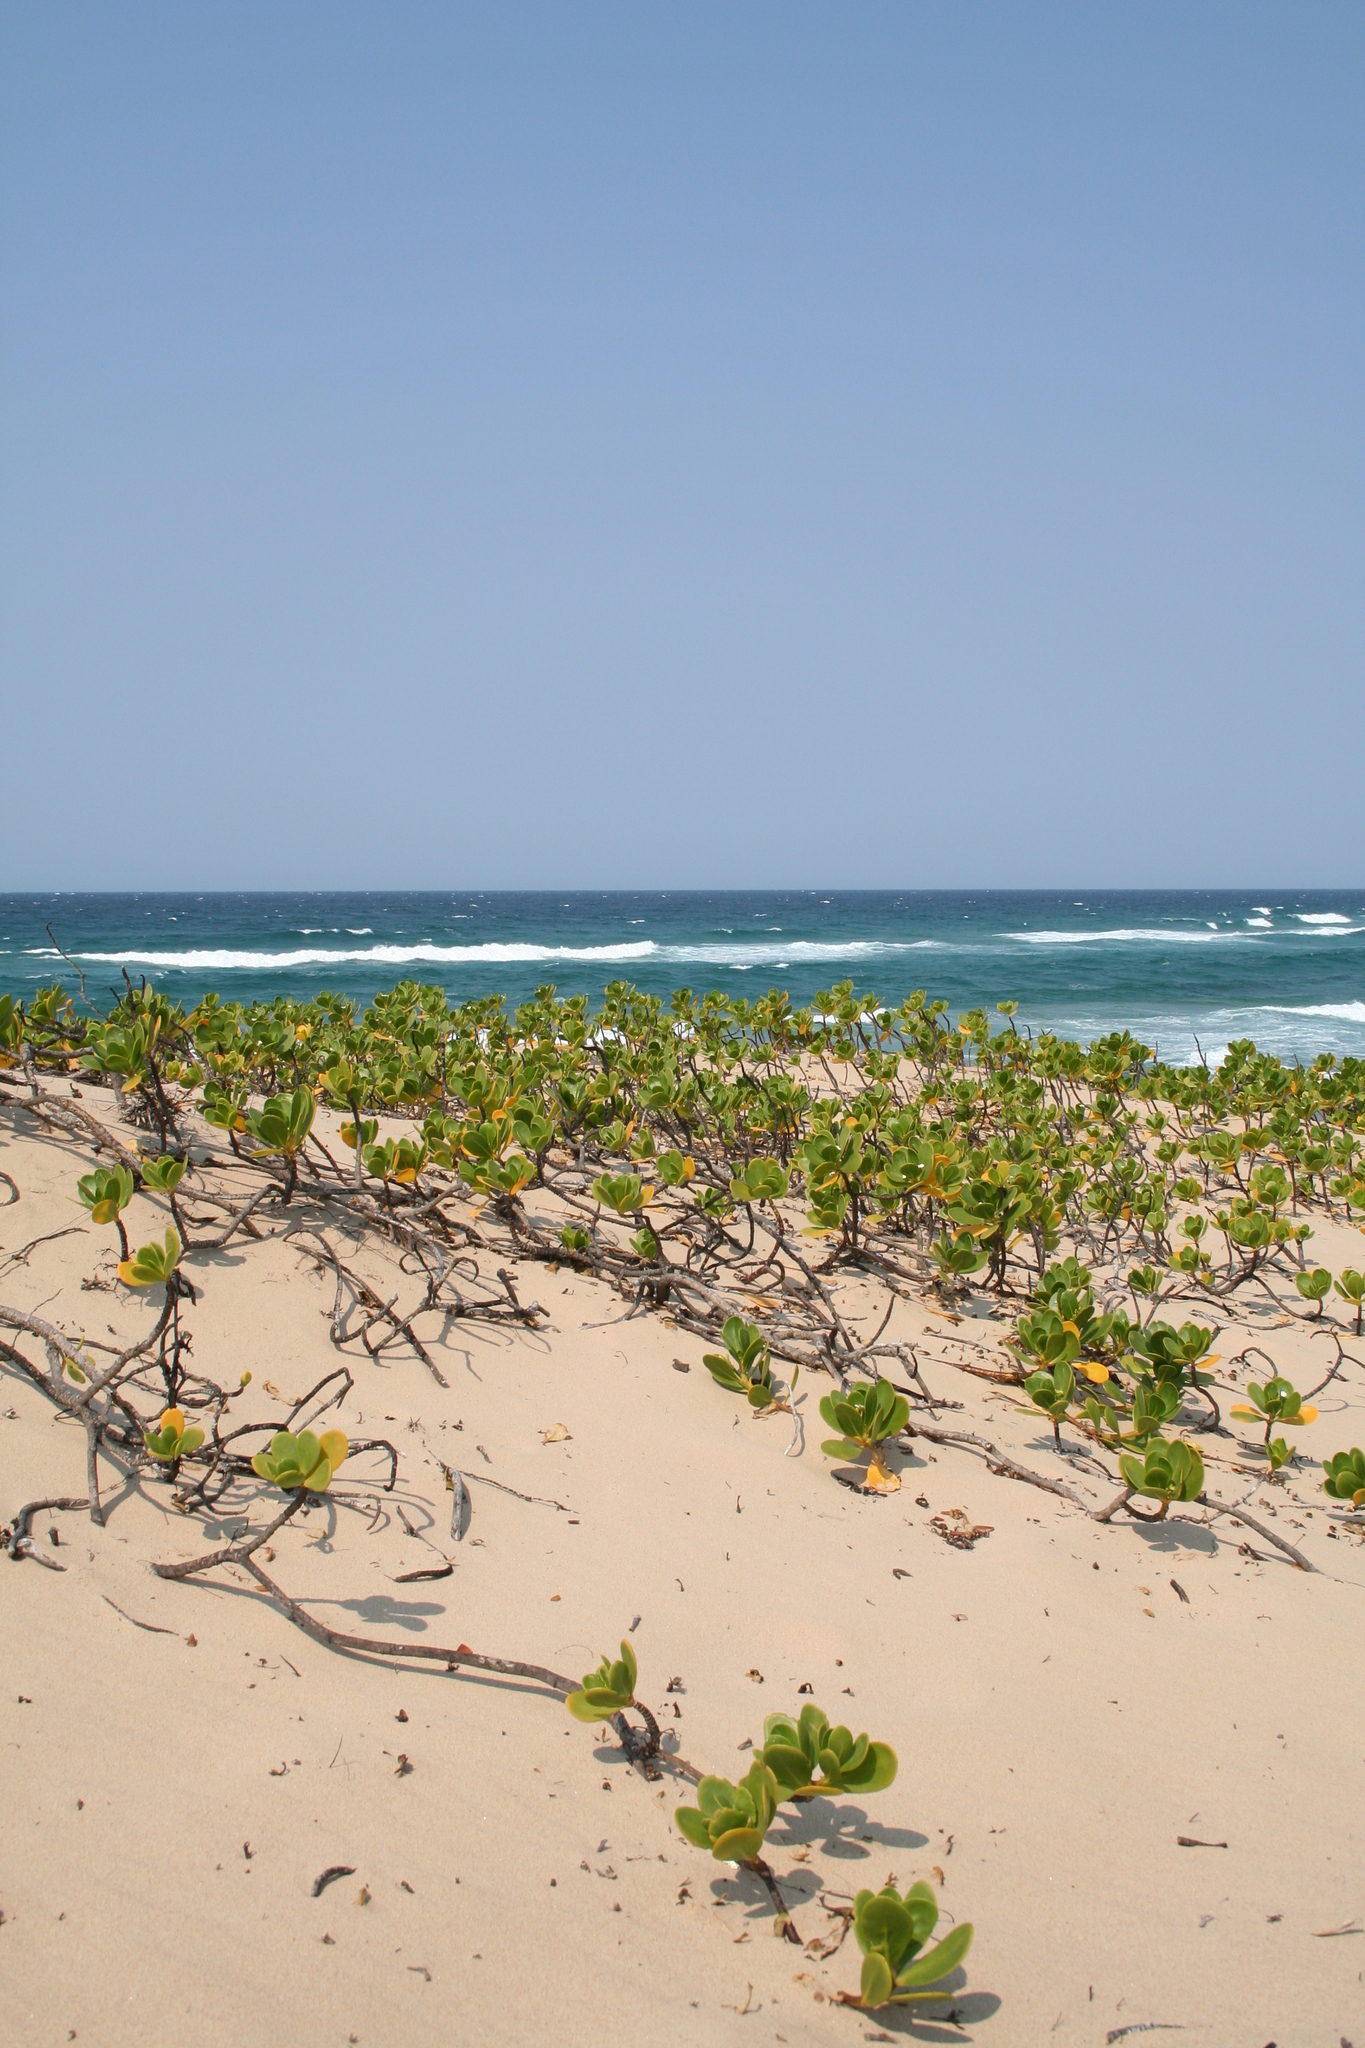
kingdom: Plantae
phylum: Tracheophyta
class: Magnoliopsida
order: Asterales
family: Goodeniaceae
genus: Scaevola
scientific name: Scaevola plumieri
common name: Gull feed
